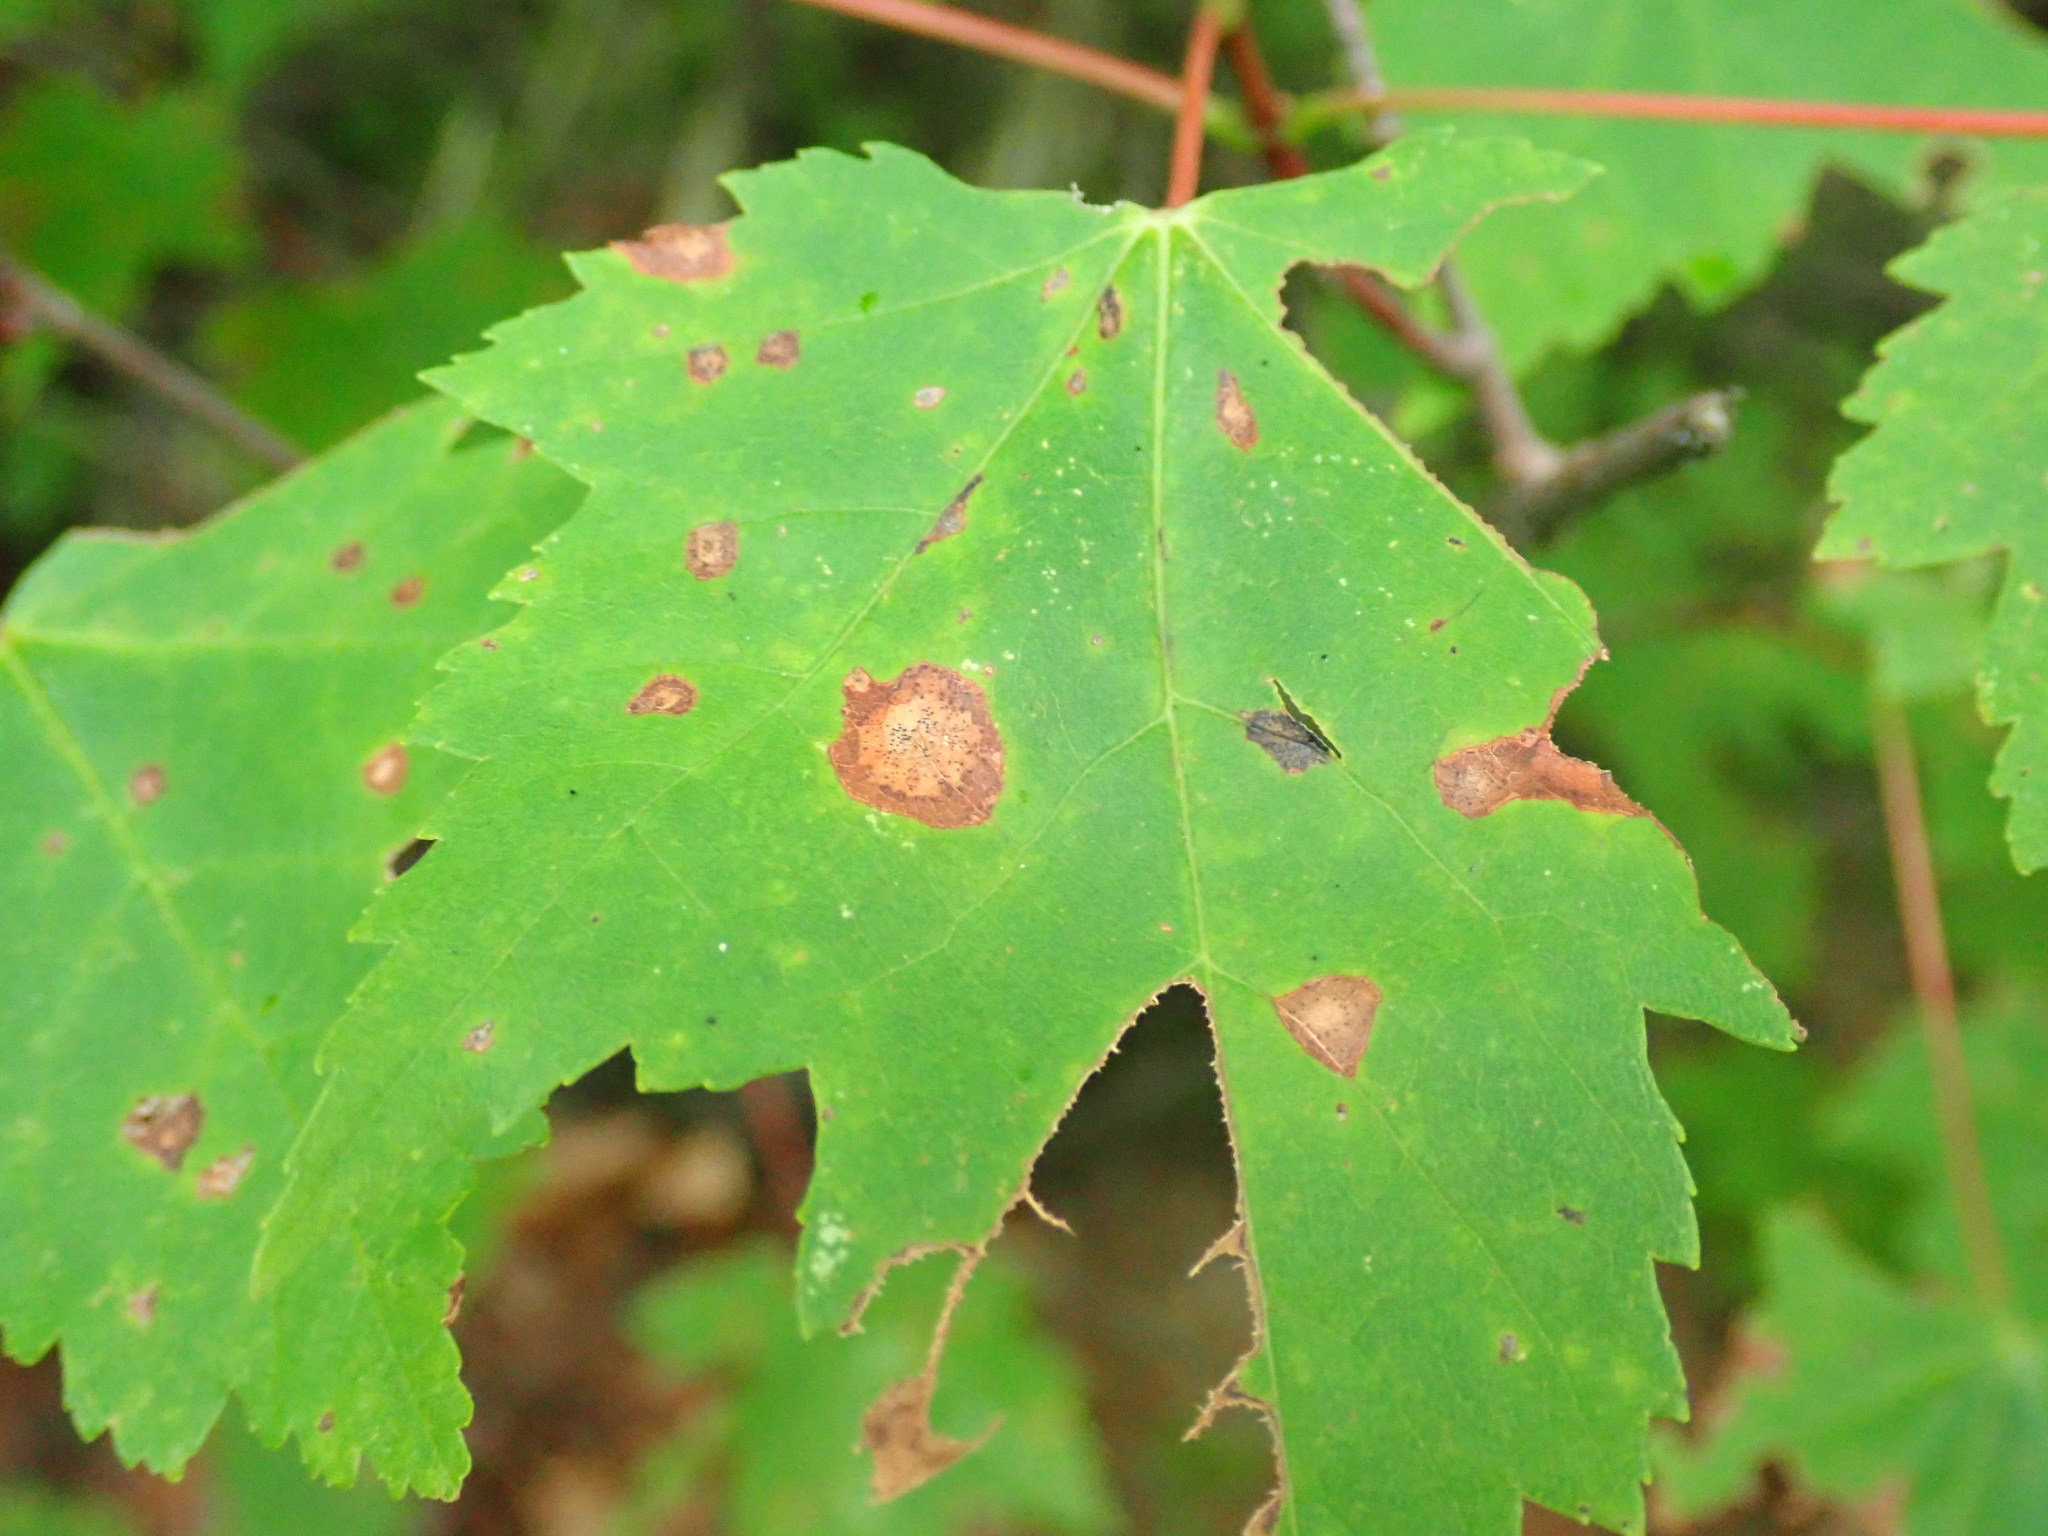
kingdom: Animalia
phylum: Arthropoda
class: Insecta
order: Diptera
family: Cecidomyiidae
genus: Acericecis
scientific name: Acericecis ocellaris
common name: Ocellate gall midge
